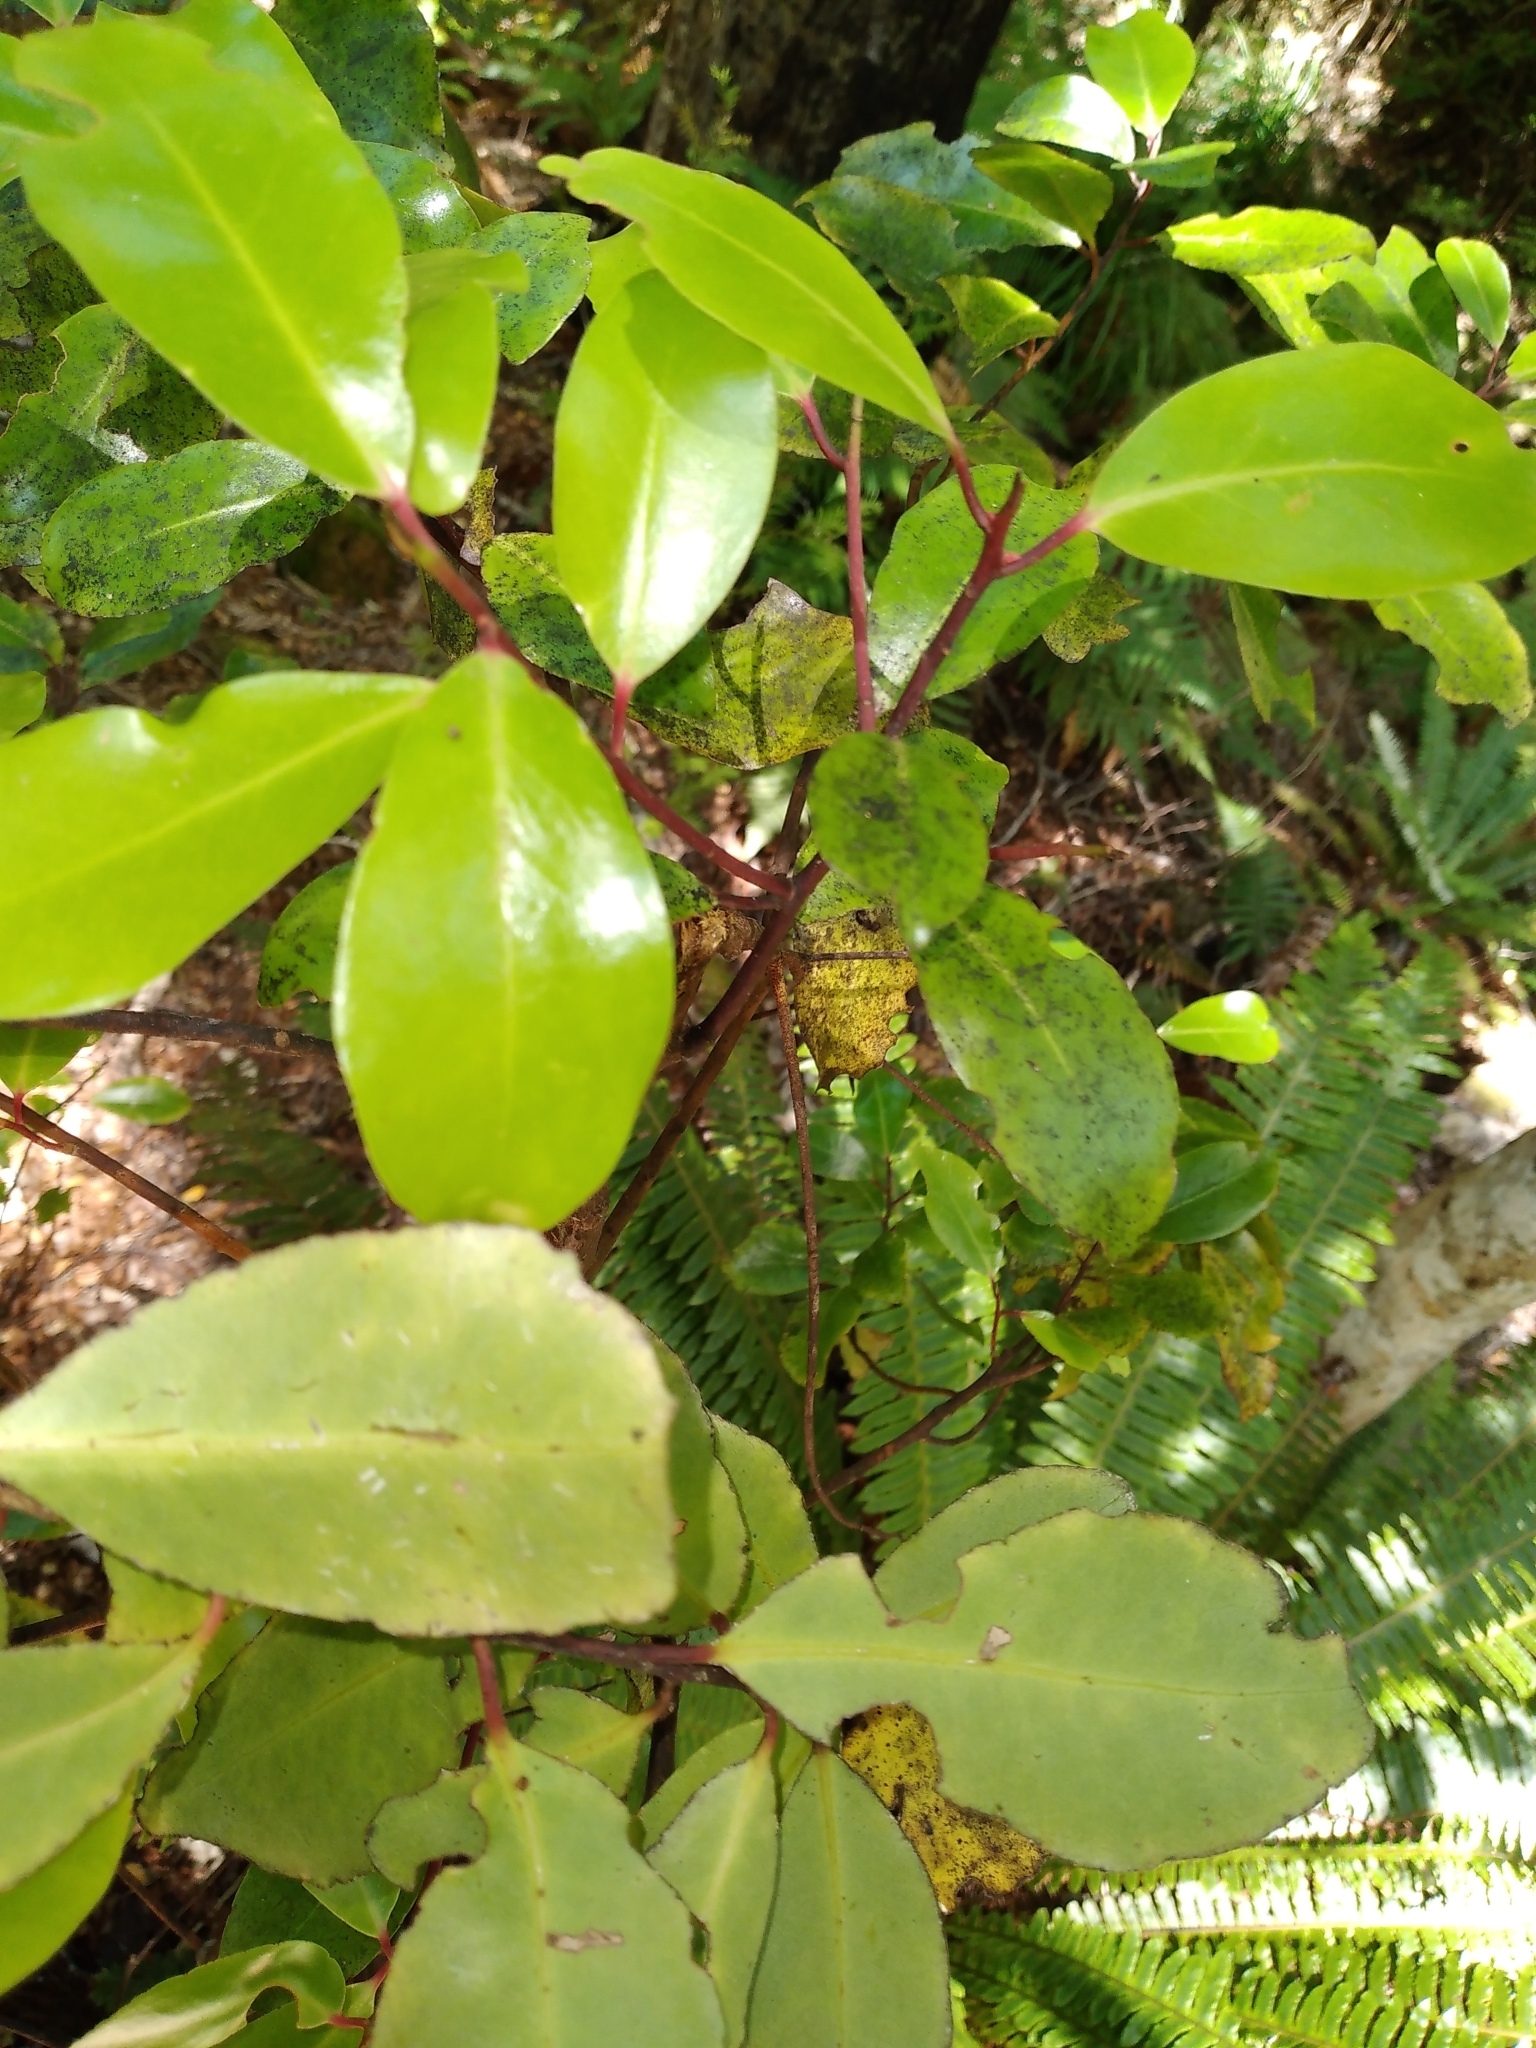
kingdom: Plantae
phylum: Tracheophyta
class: Magnoliopsida
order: Canellales
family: Winteraceae
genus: Pseudowintera
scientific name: Pseudowintera axillaris
